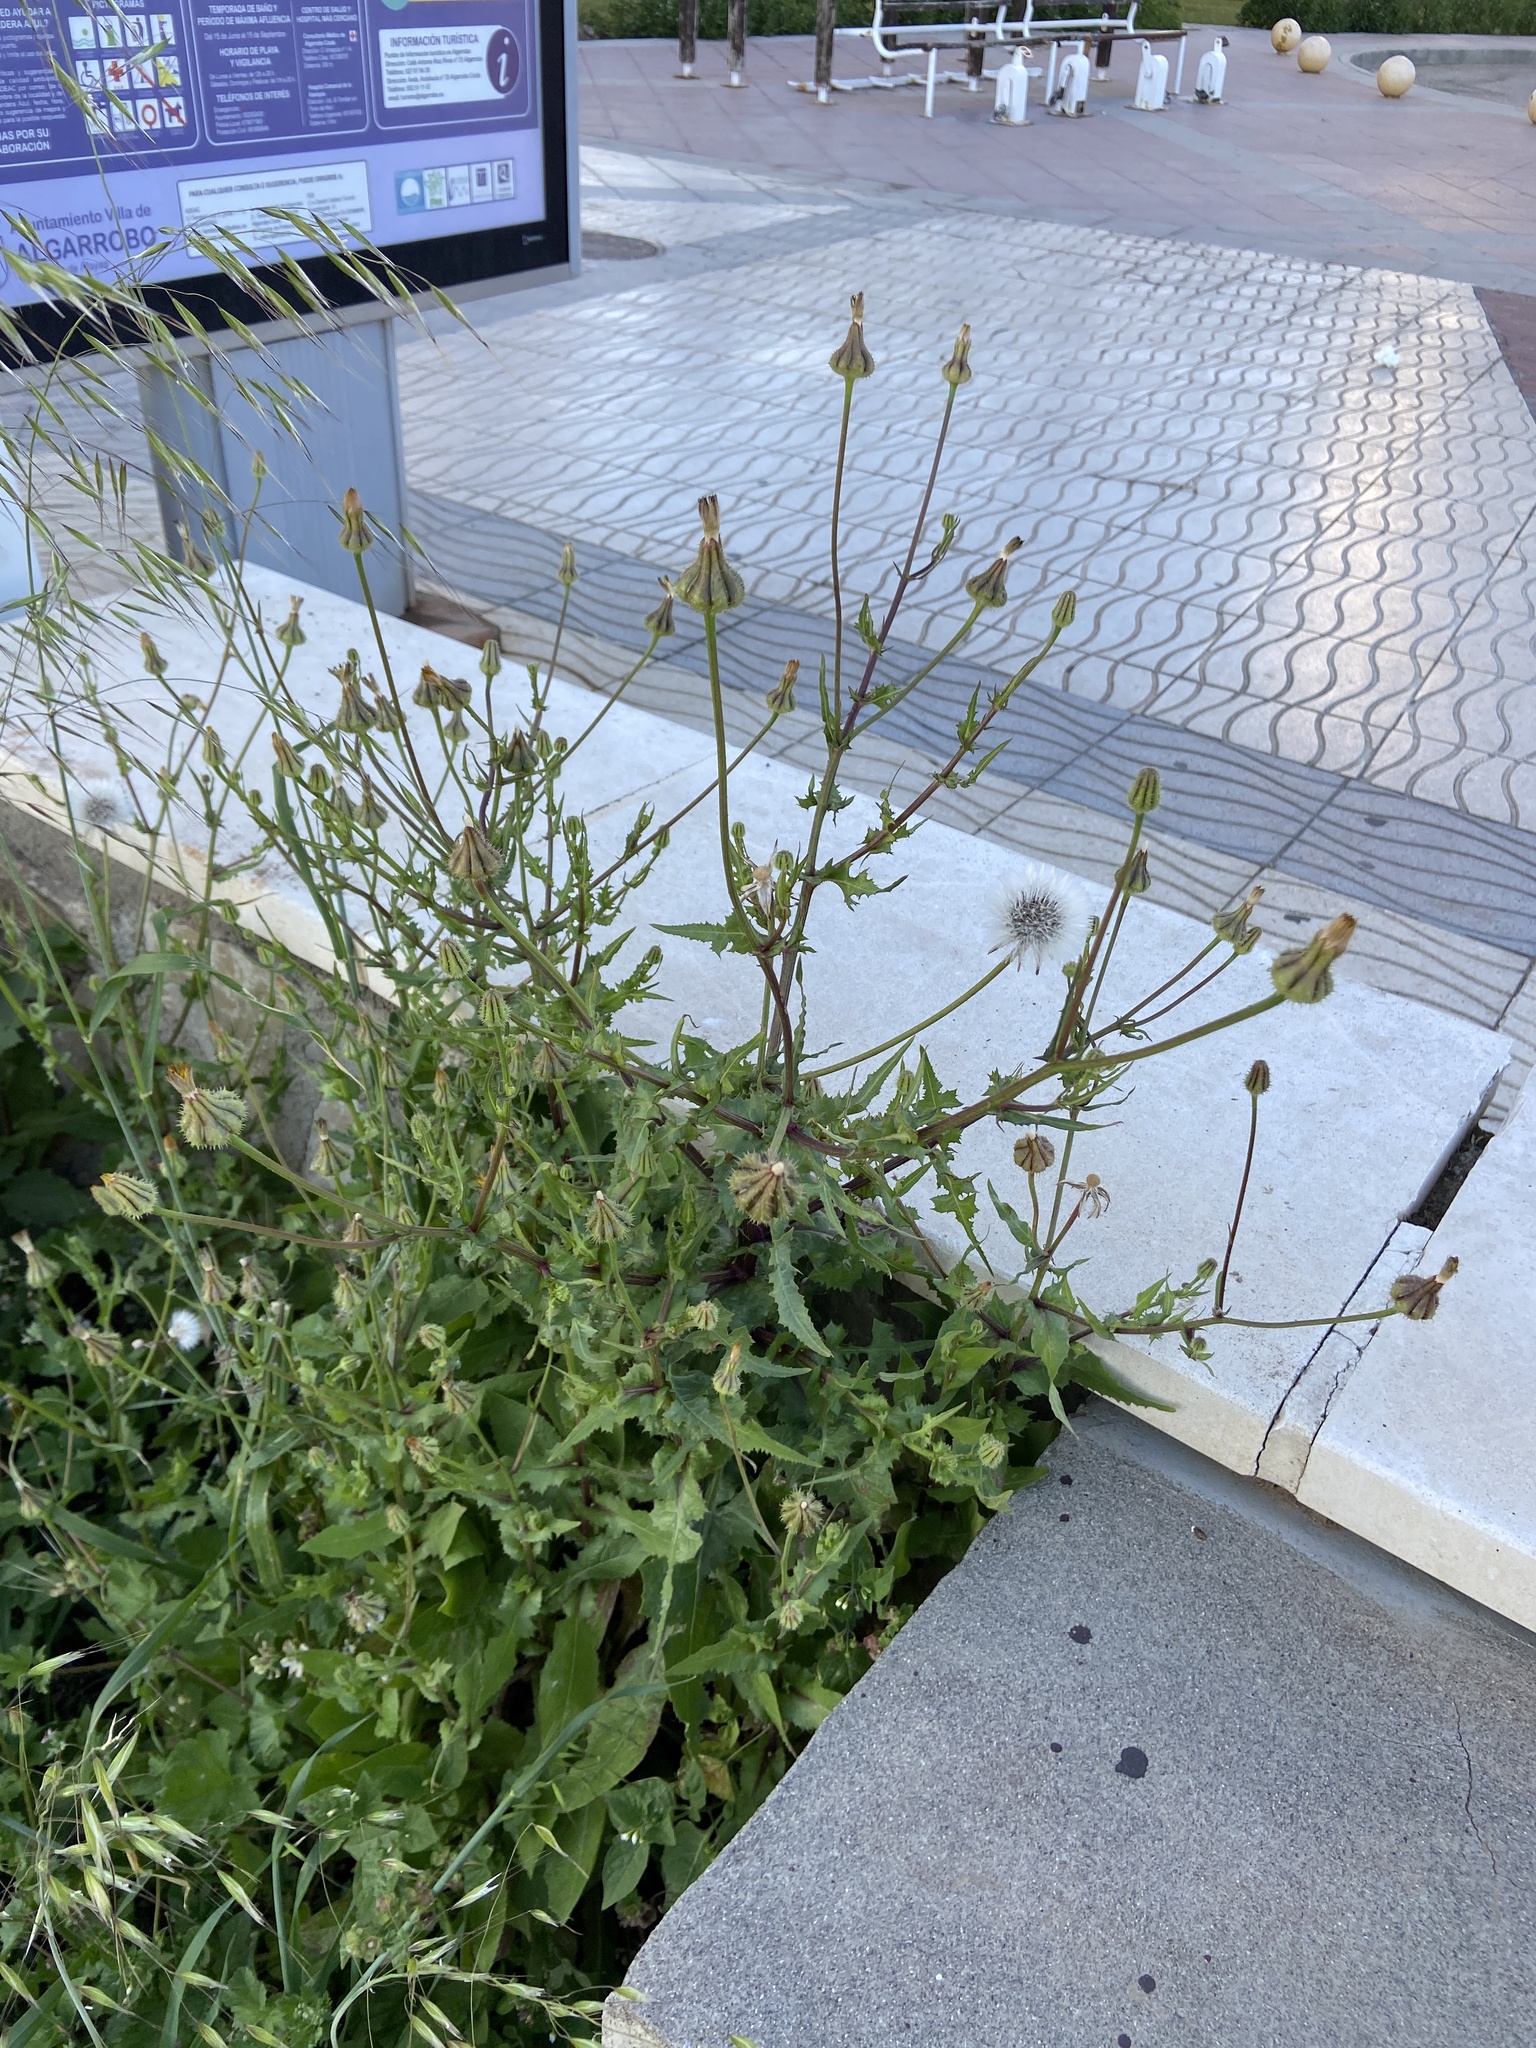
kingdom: Plantae
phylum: Tracheophyta
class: Magnoliopsida
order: Asterales
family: Asteraceae
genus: Urospermum
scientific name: Urospermum picroides
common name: False hawkbit
